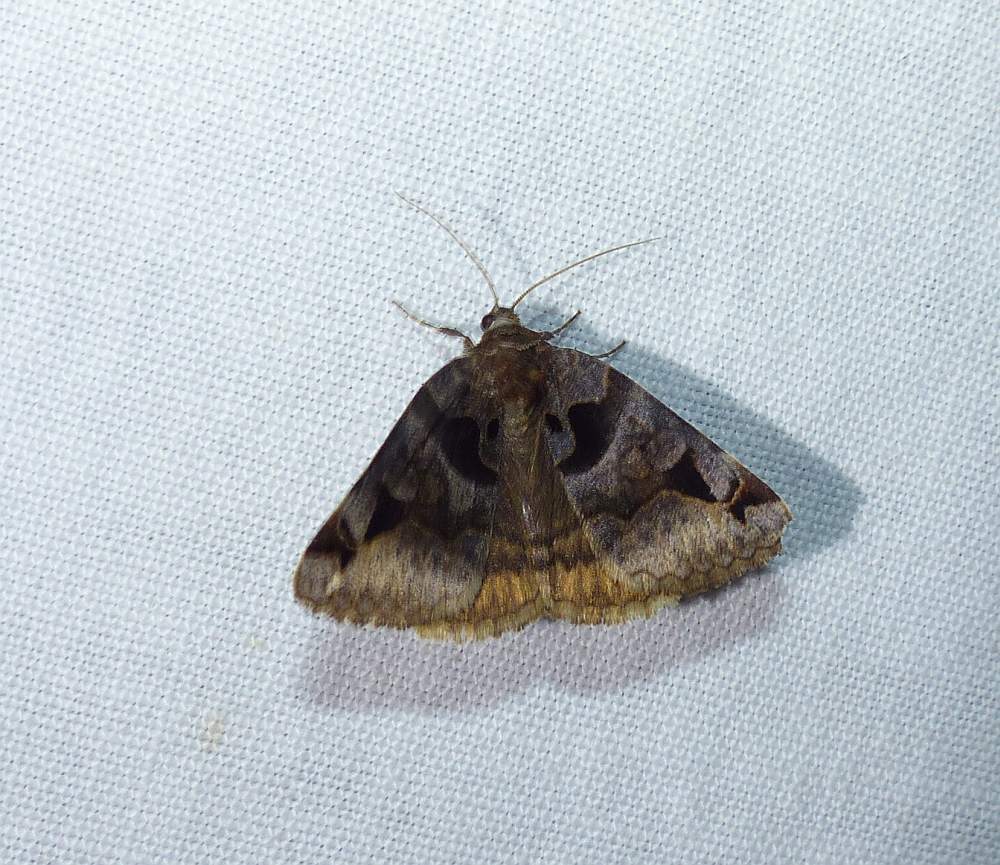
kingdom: Animalia
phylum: Arthropoda
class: Insecta
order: Lepidoptera
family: Erebidae
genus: Euclidia
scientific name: Euclidia cuspidea
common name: Toothed somberwing
